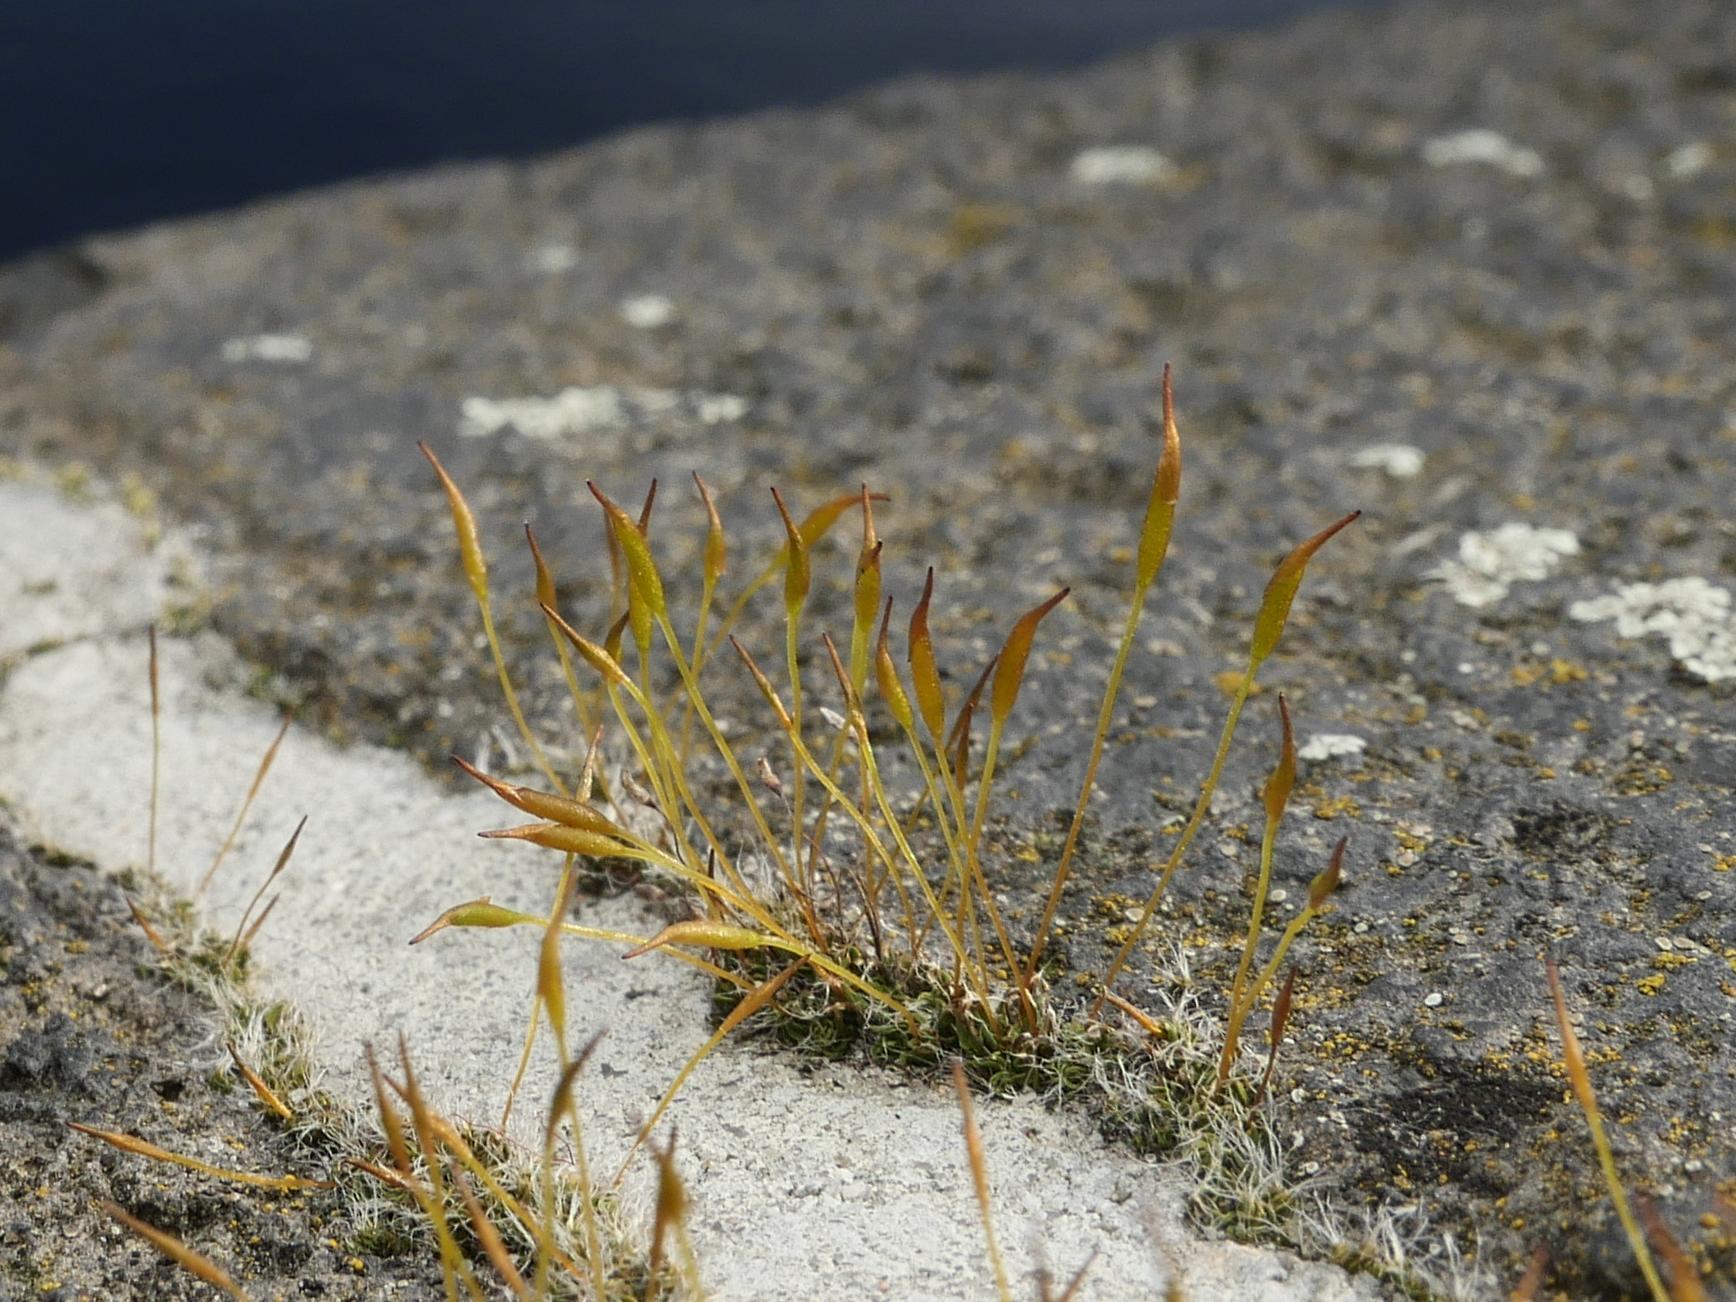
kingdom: Plantae
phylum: Bryophyta
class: Bryopsida
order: Pottiales
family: Pottiaceae
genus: Tortula
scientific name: Tortula muralis
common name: Wall screw-moss
